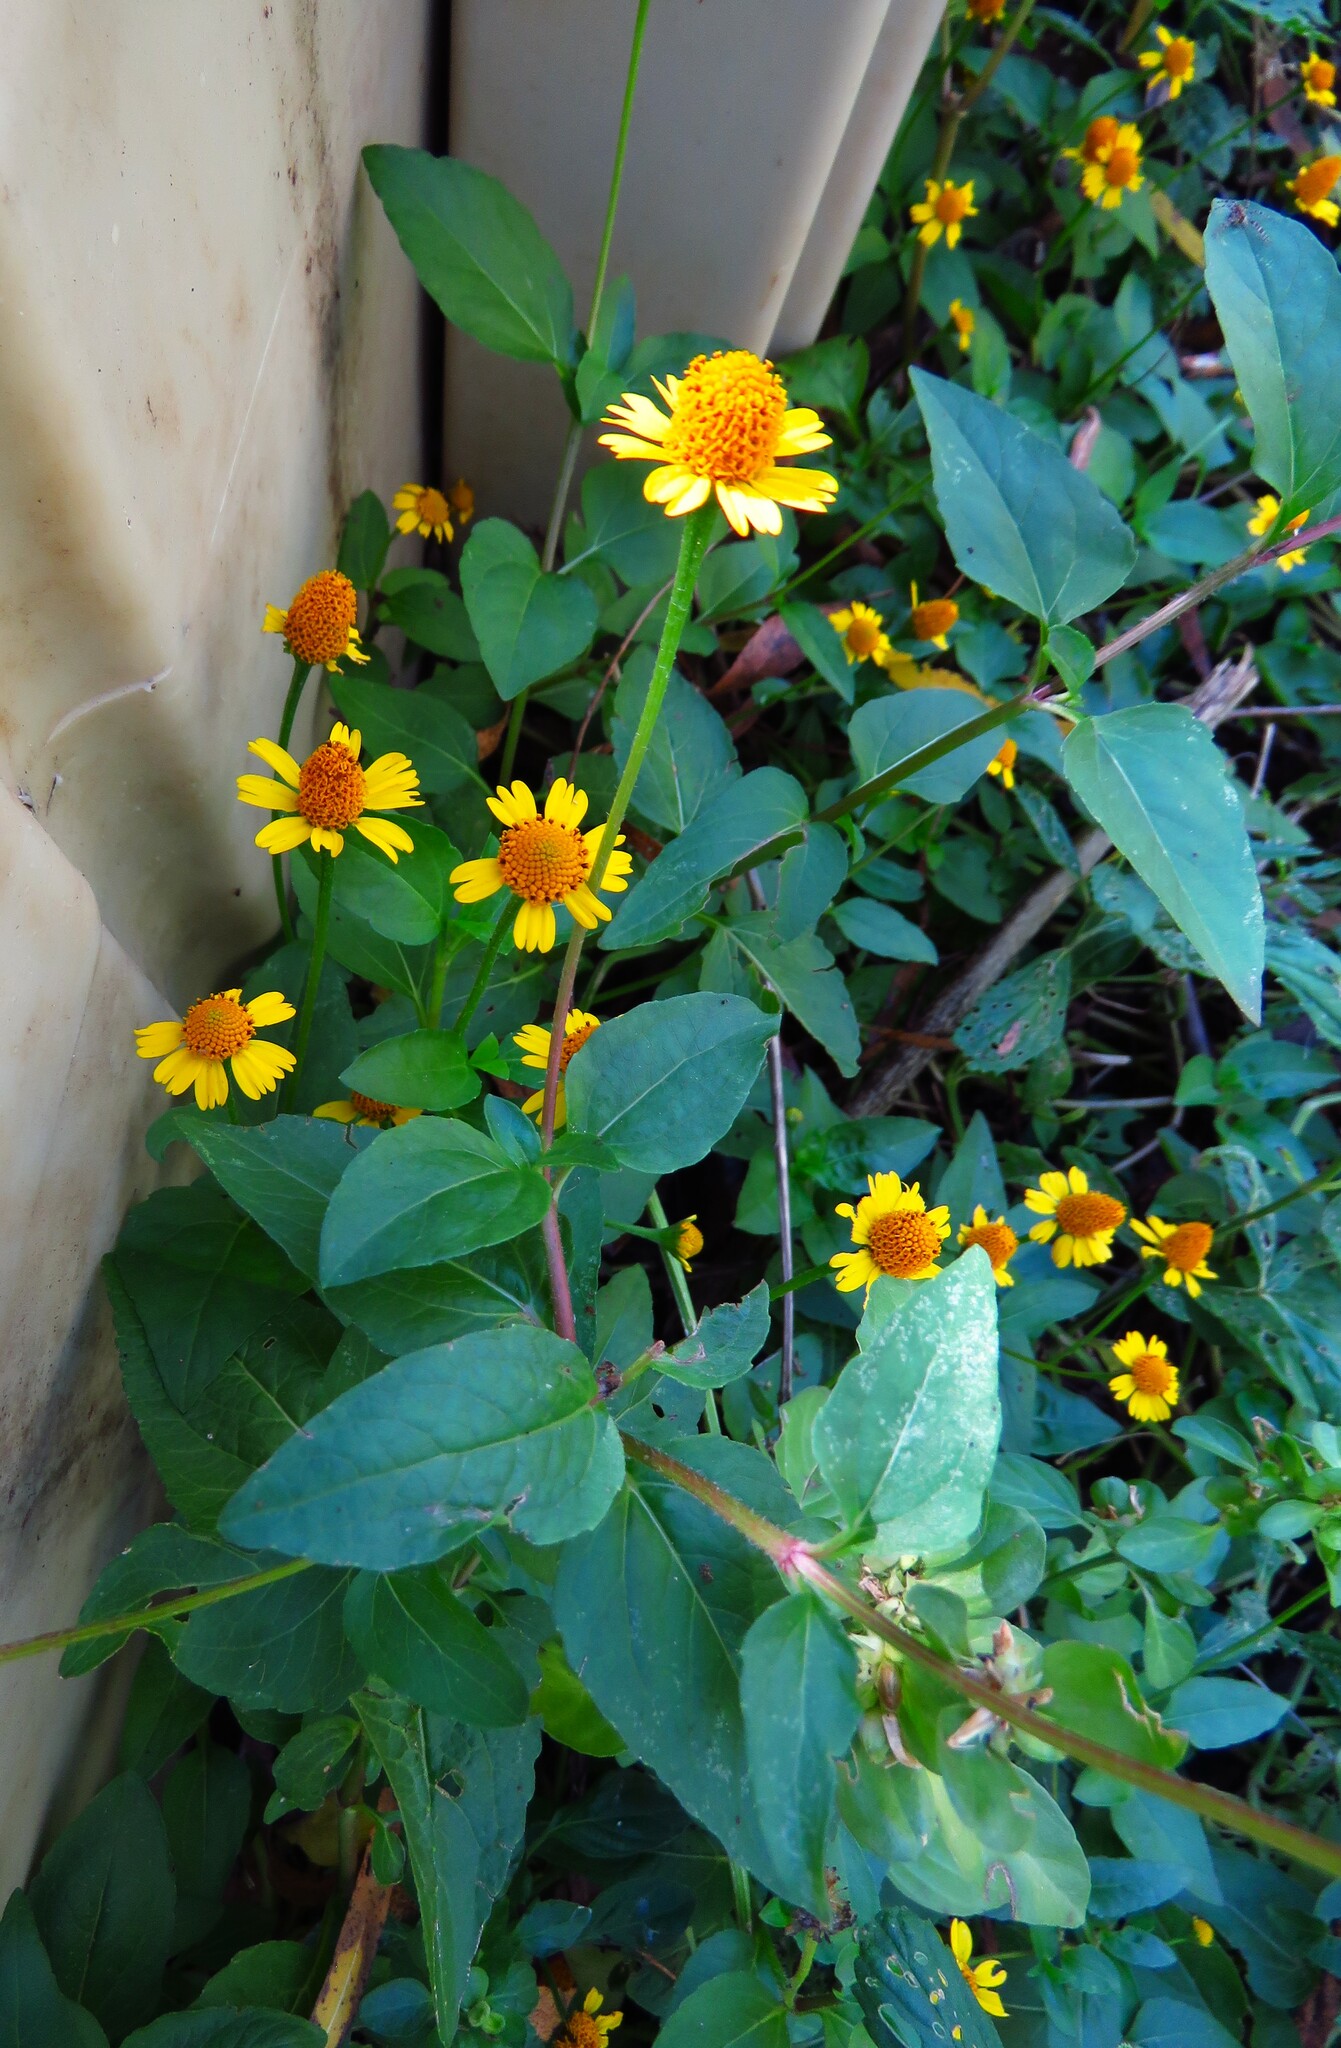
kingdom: Plantae
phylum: Tracheophyta
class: Magnoliopsida
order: Asterales
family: Asteraceae
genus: Acmella
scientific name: Acmella repens
